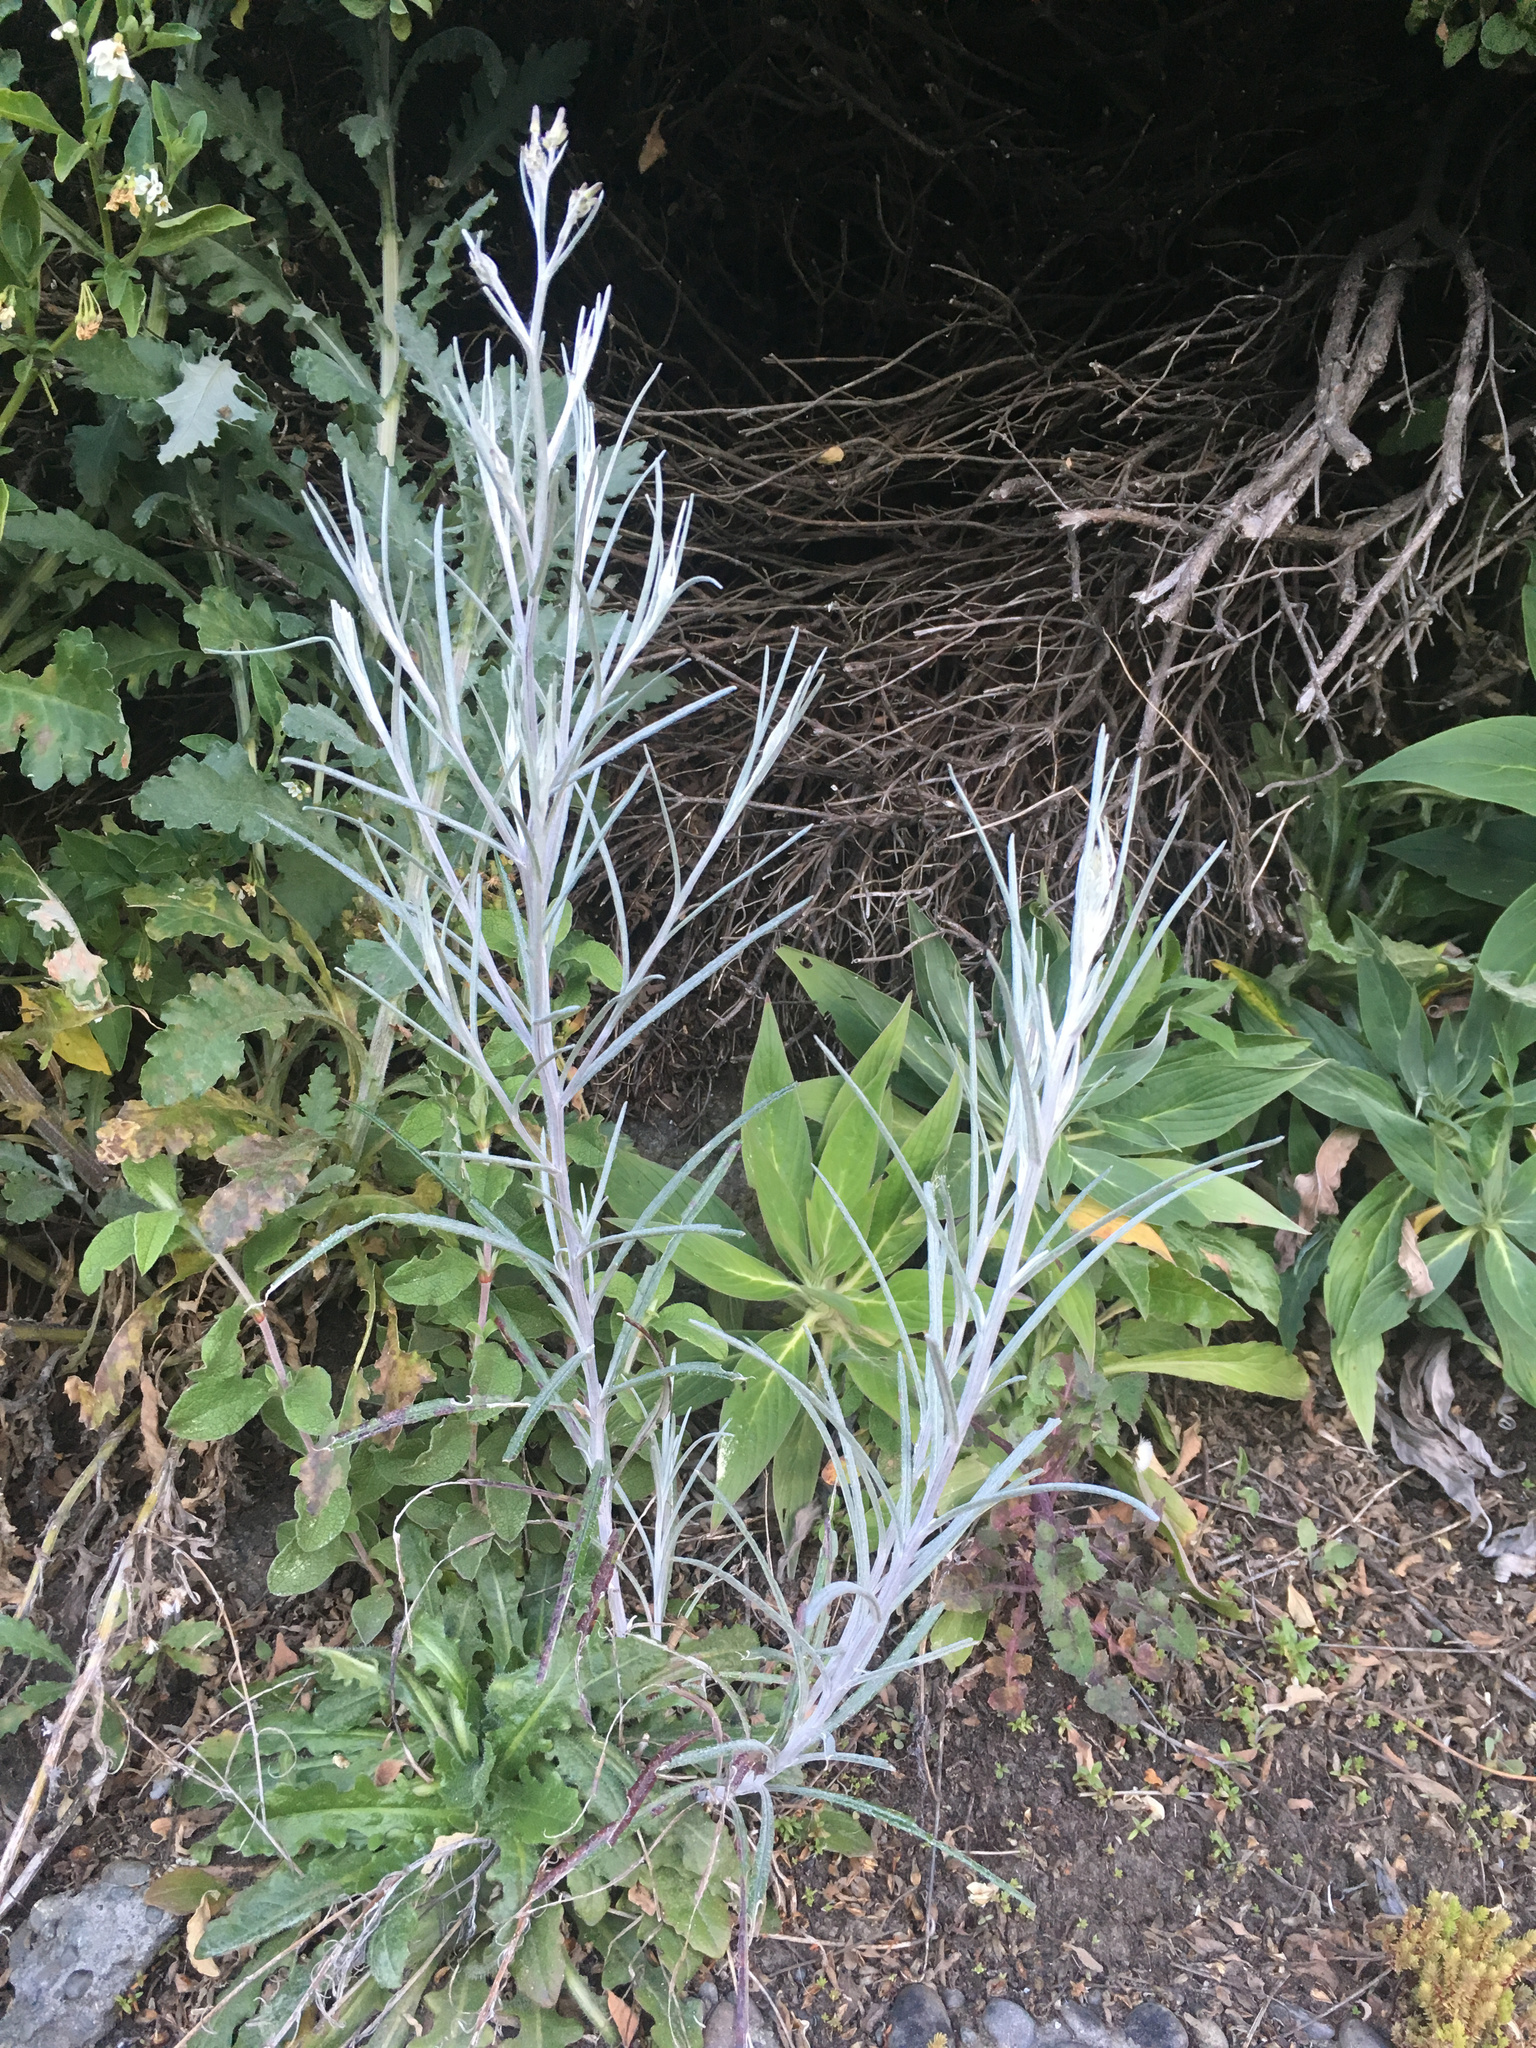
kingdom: Plantae
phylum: Tracheophyta
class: Magnoliopsida
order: Asterales
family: Asteraceae
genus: Senecio
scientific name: Senecio quadridentatus
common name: Cotton fireweed
